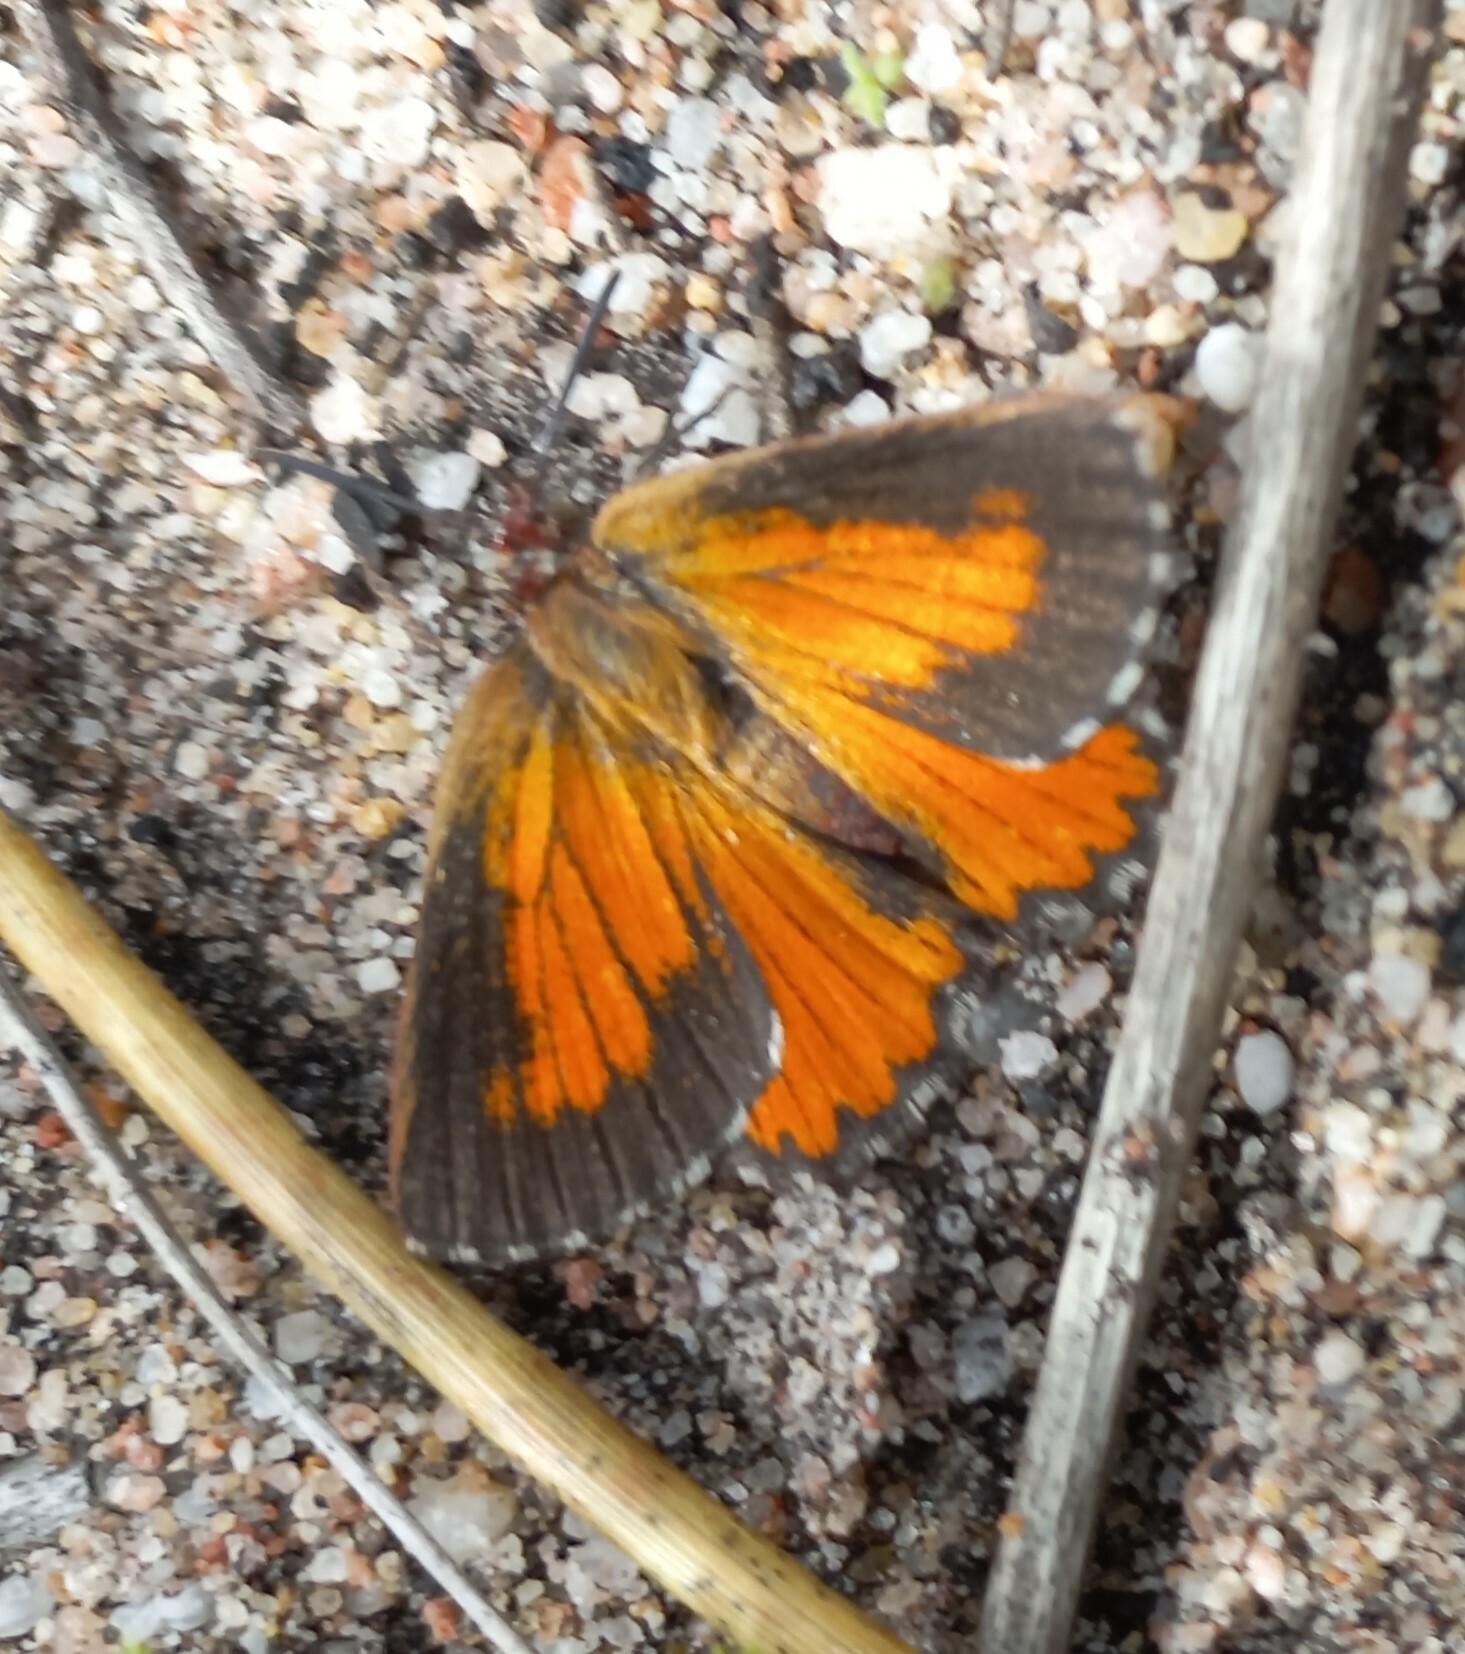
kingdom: Animalia
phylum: Arthropoda
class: Insecta
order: Lepidoptera
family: Lycaenidae
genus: Aloeides
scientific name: Aloeides thyra
